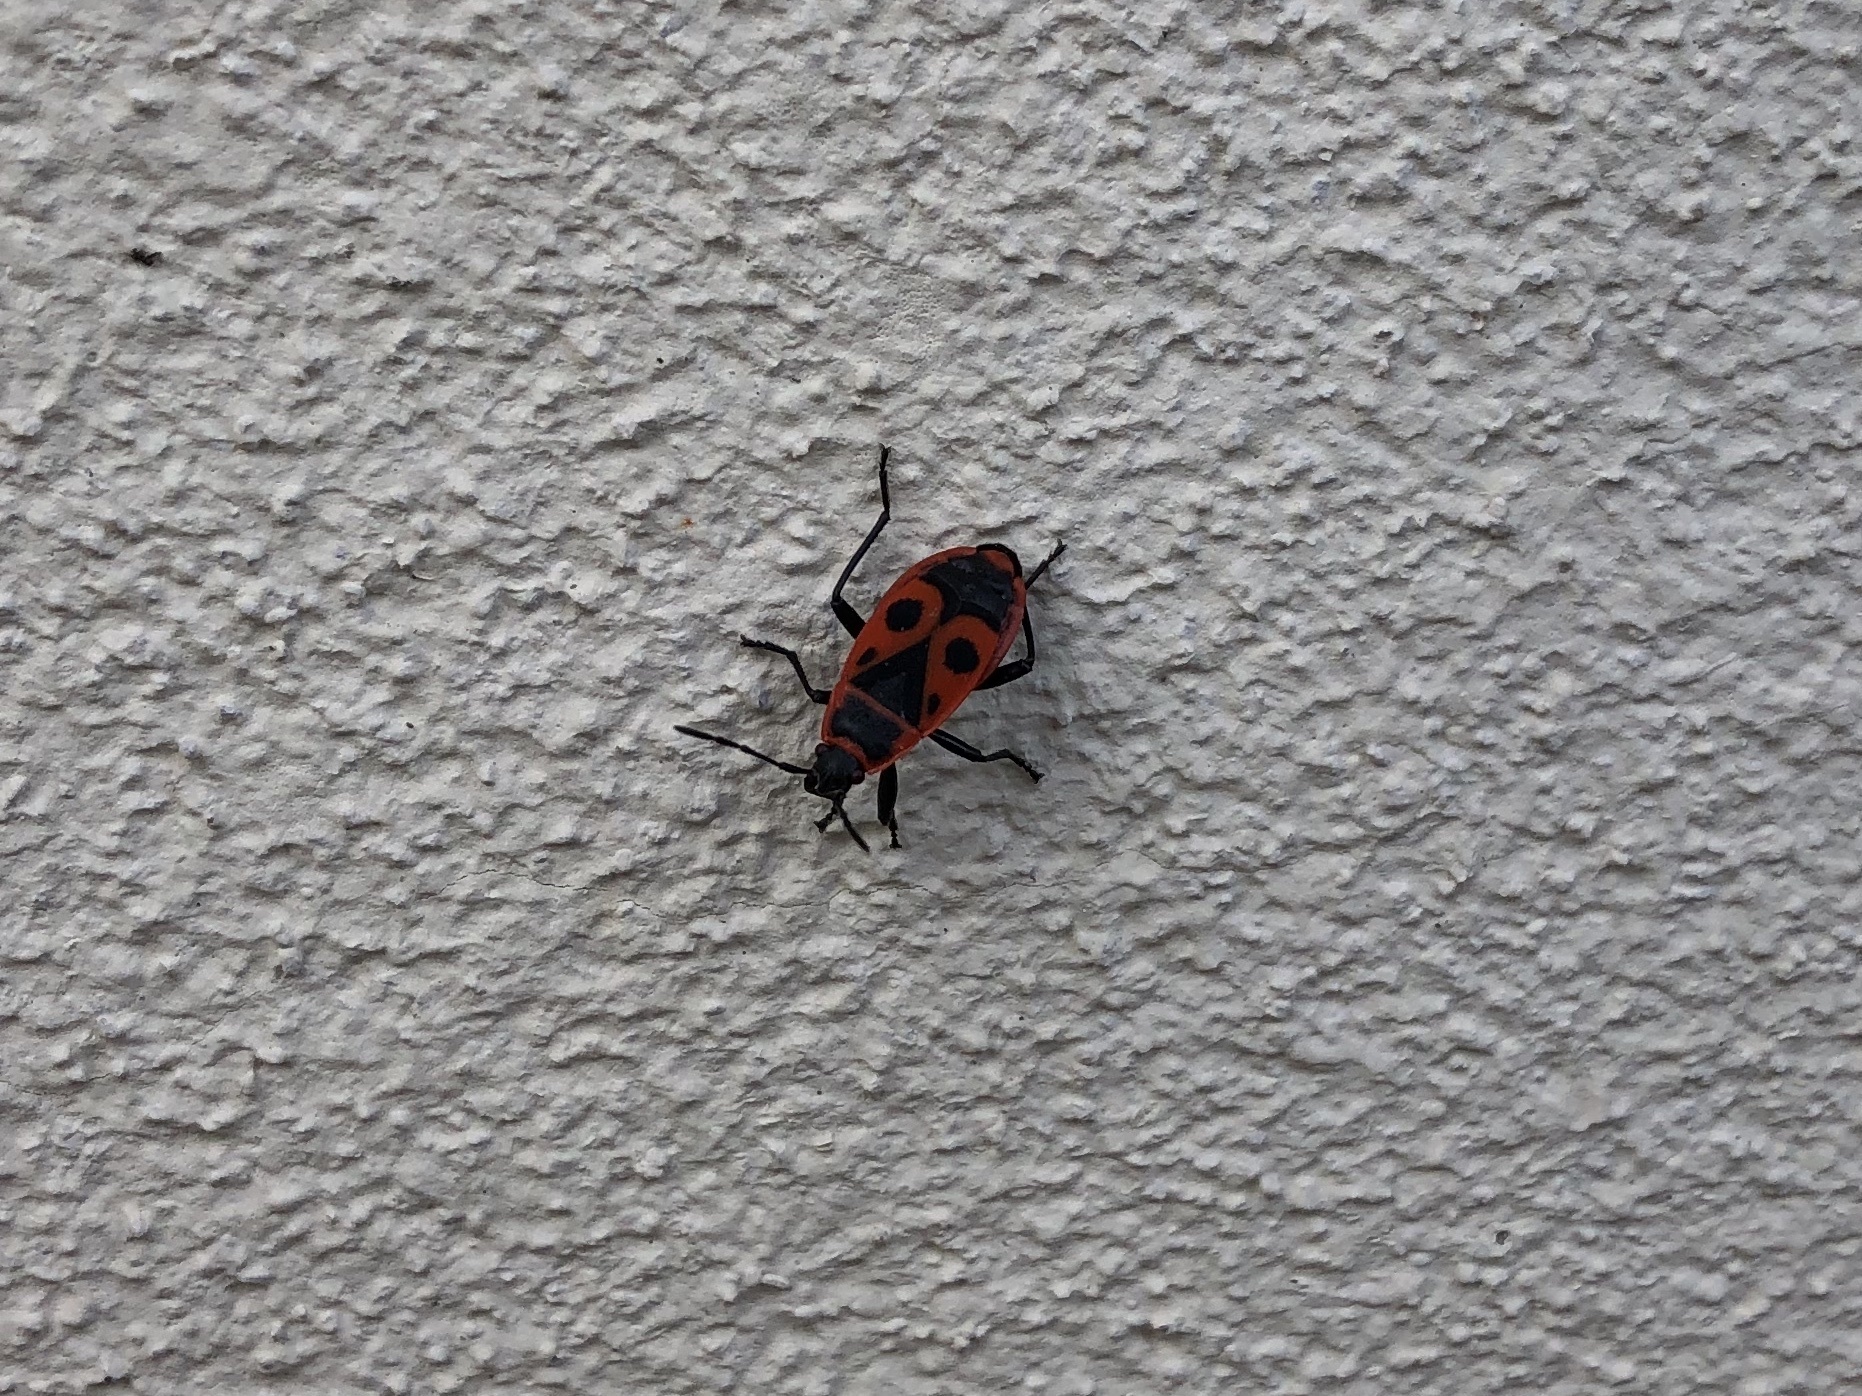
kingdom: Animalia
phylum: Arthropoda
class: Insecta
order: Hemiptera
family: Pyrrhocoridae
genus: Pyrrhocoris
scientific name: Pyrrhocoris apterus
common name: Firebug
